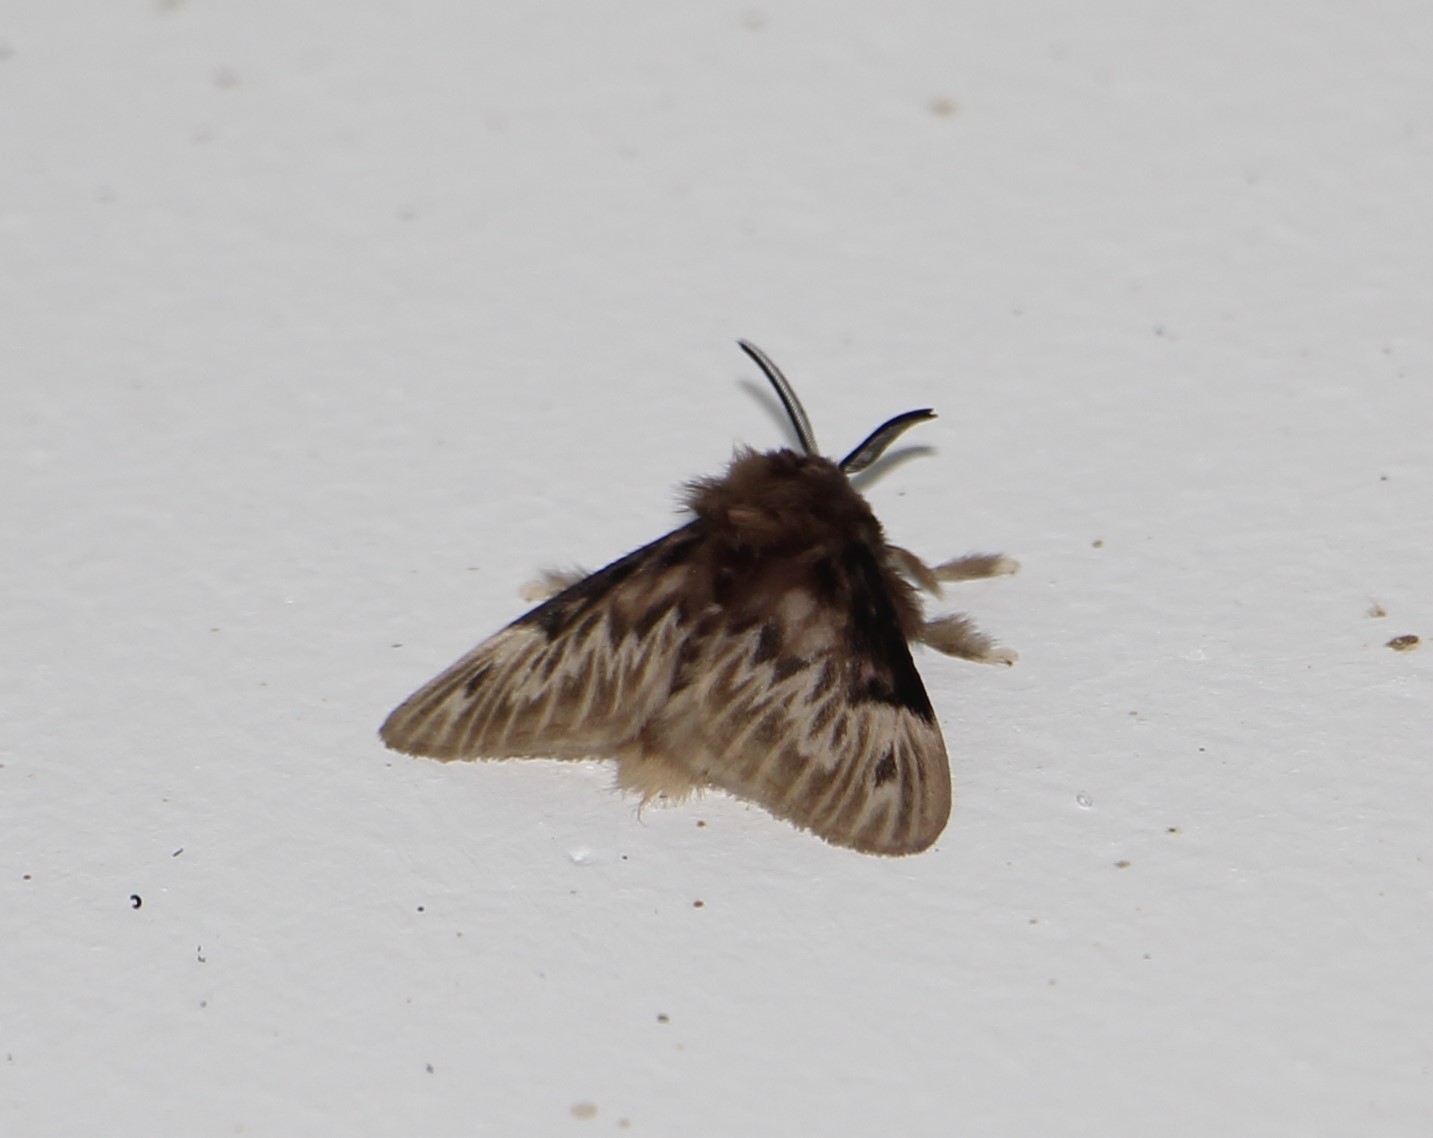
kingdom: Animalia
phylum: Arthropoda
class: Insecta
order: Lepidoptera
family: Megalopygidae
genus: Podalia
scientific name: Podalia
